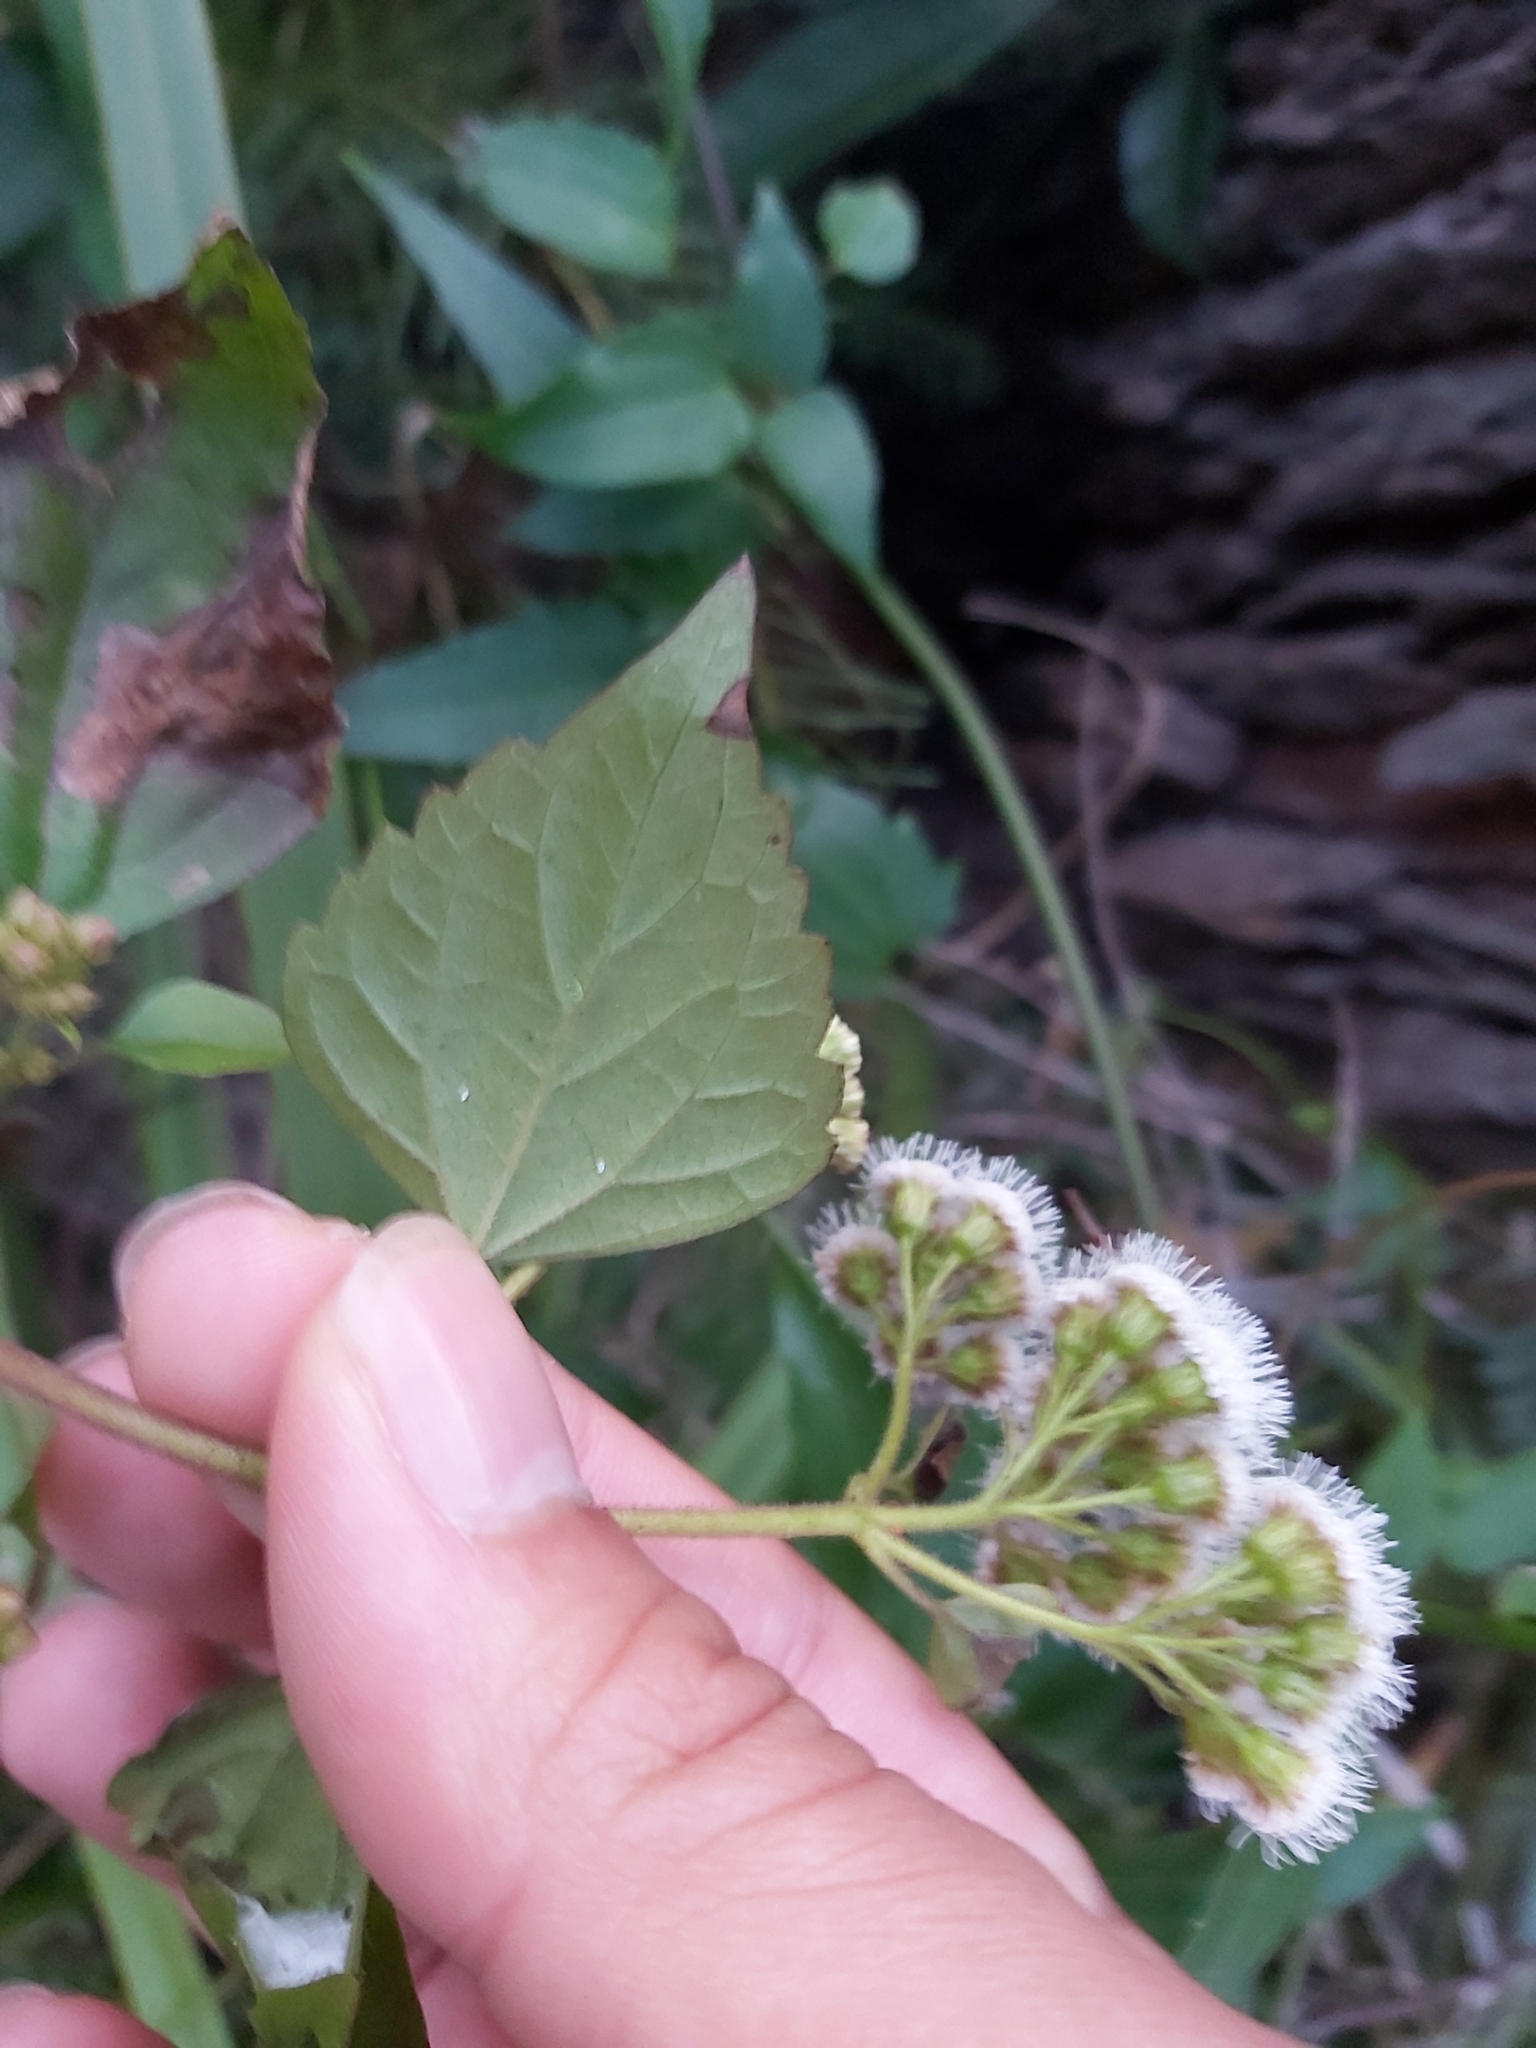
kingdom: Plantae
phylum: Tracheophyta
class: Magnoliopsida
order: Asterales
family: Asteraceae
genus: Ageratina
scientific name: Ageratina adenophora
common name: Sticky snakeroot
